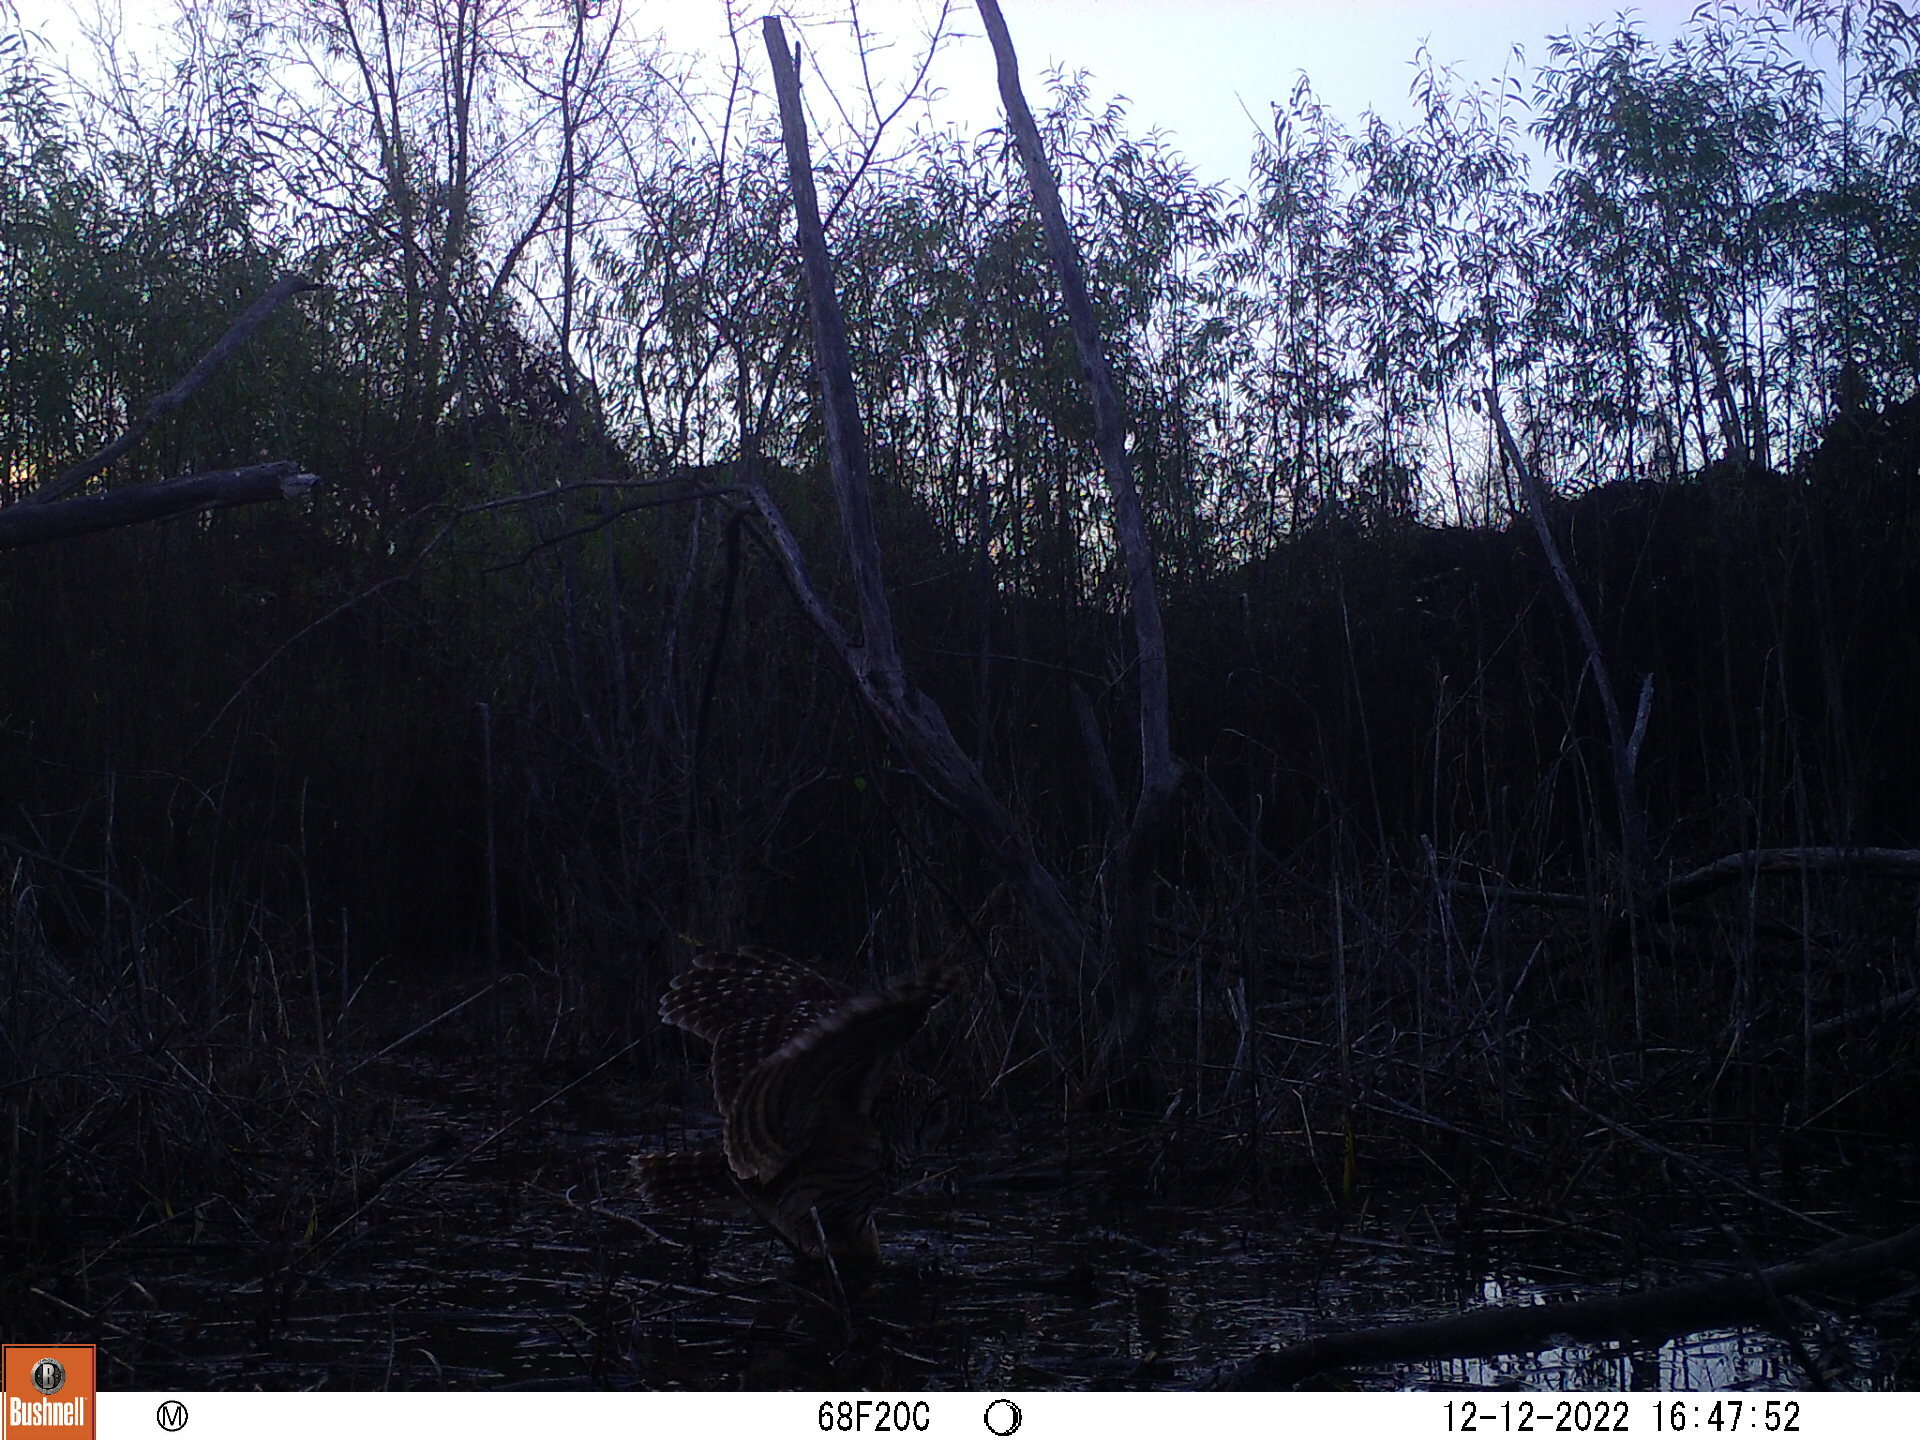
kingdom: Animalia
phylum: Chordata
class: Aves
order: Strigiformes
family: Strigidae
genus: Strix
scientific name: Strix varia
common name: Barred owl
